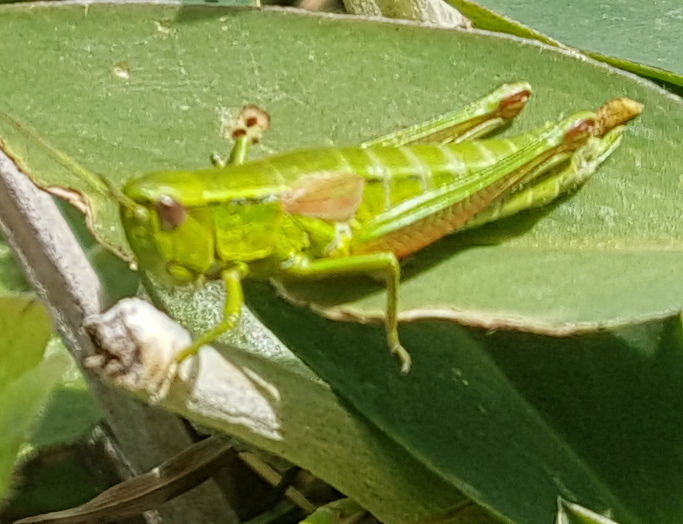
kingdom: Animalia
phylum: Arthropoda
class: Insecta
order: Orthoptera
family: Acrididae
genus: Euthystira
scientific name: Euthystira brachyptera
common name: Small gold grasshopper
